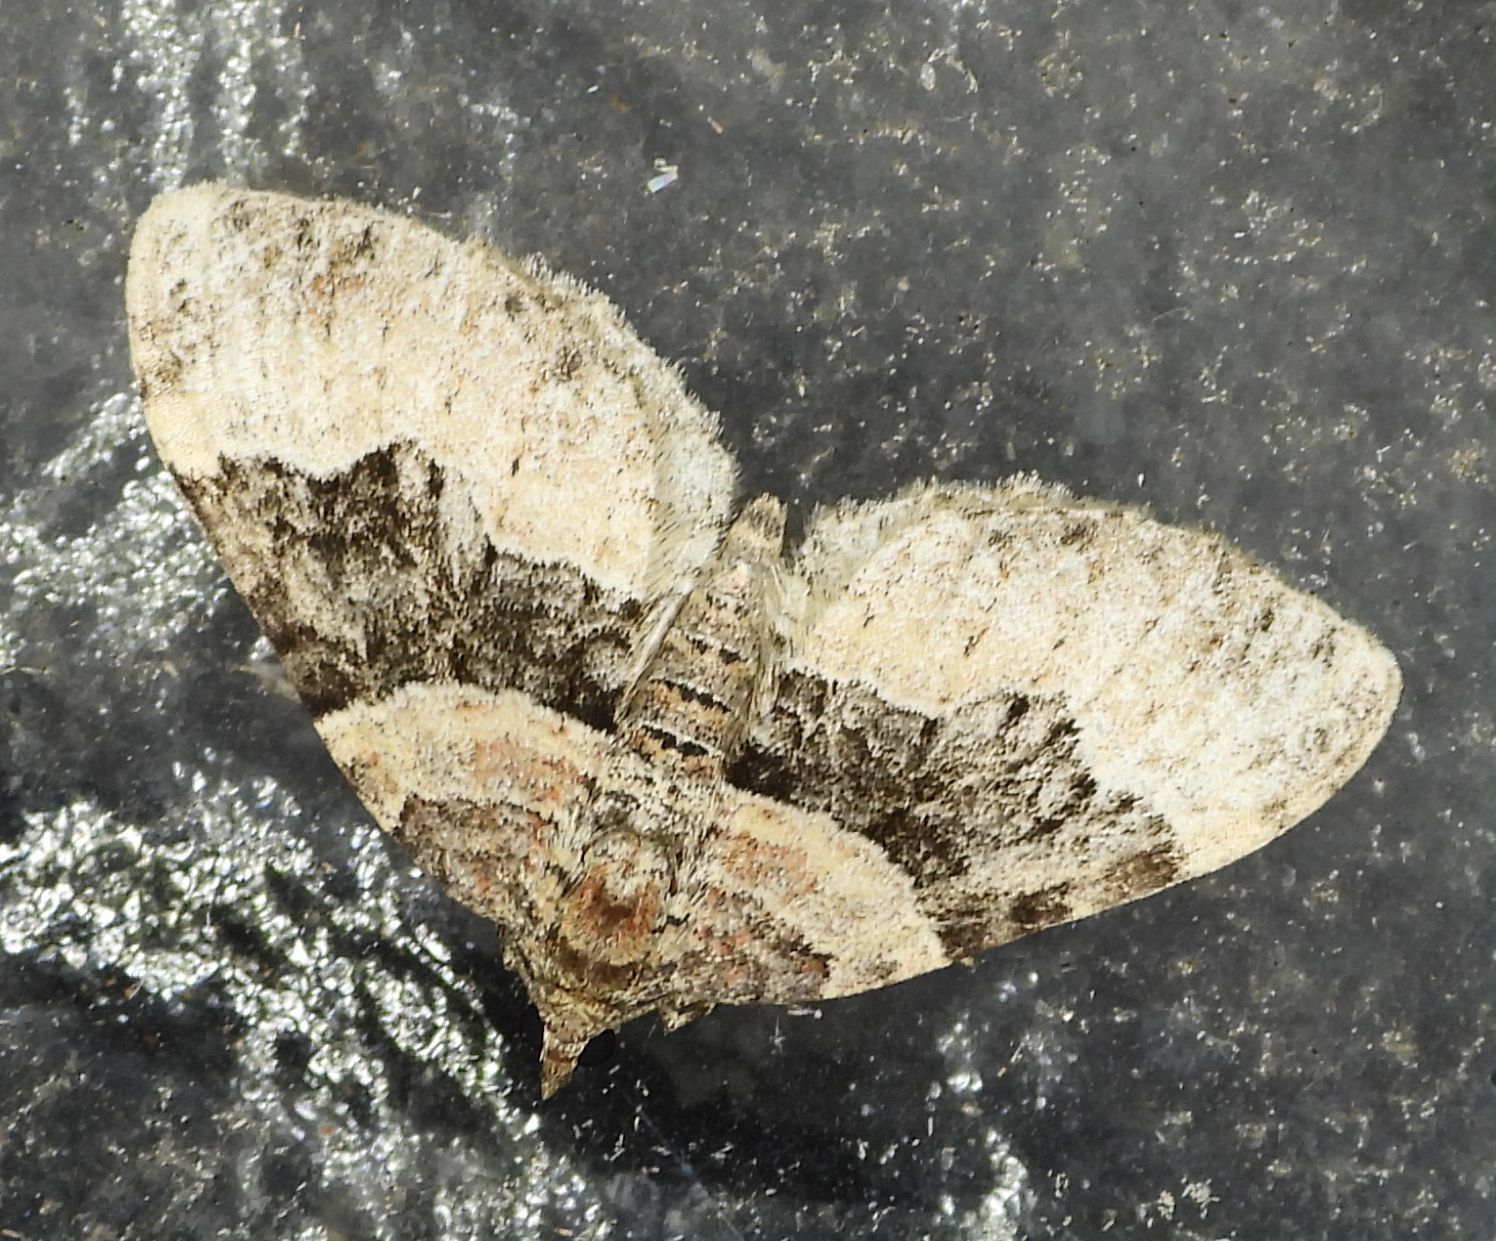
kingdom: Animalia
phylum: Arthropoda
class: Insecta
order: Lepidoptera
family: Geometridae
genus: Xanthorhoe
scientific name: Xanthorhoe lacustrata
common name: Toothed brown carpet
